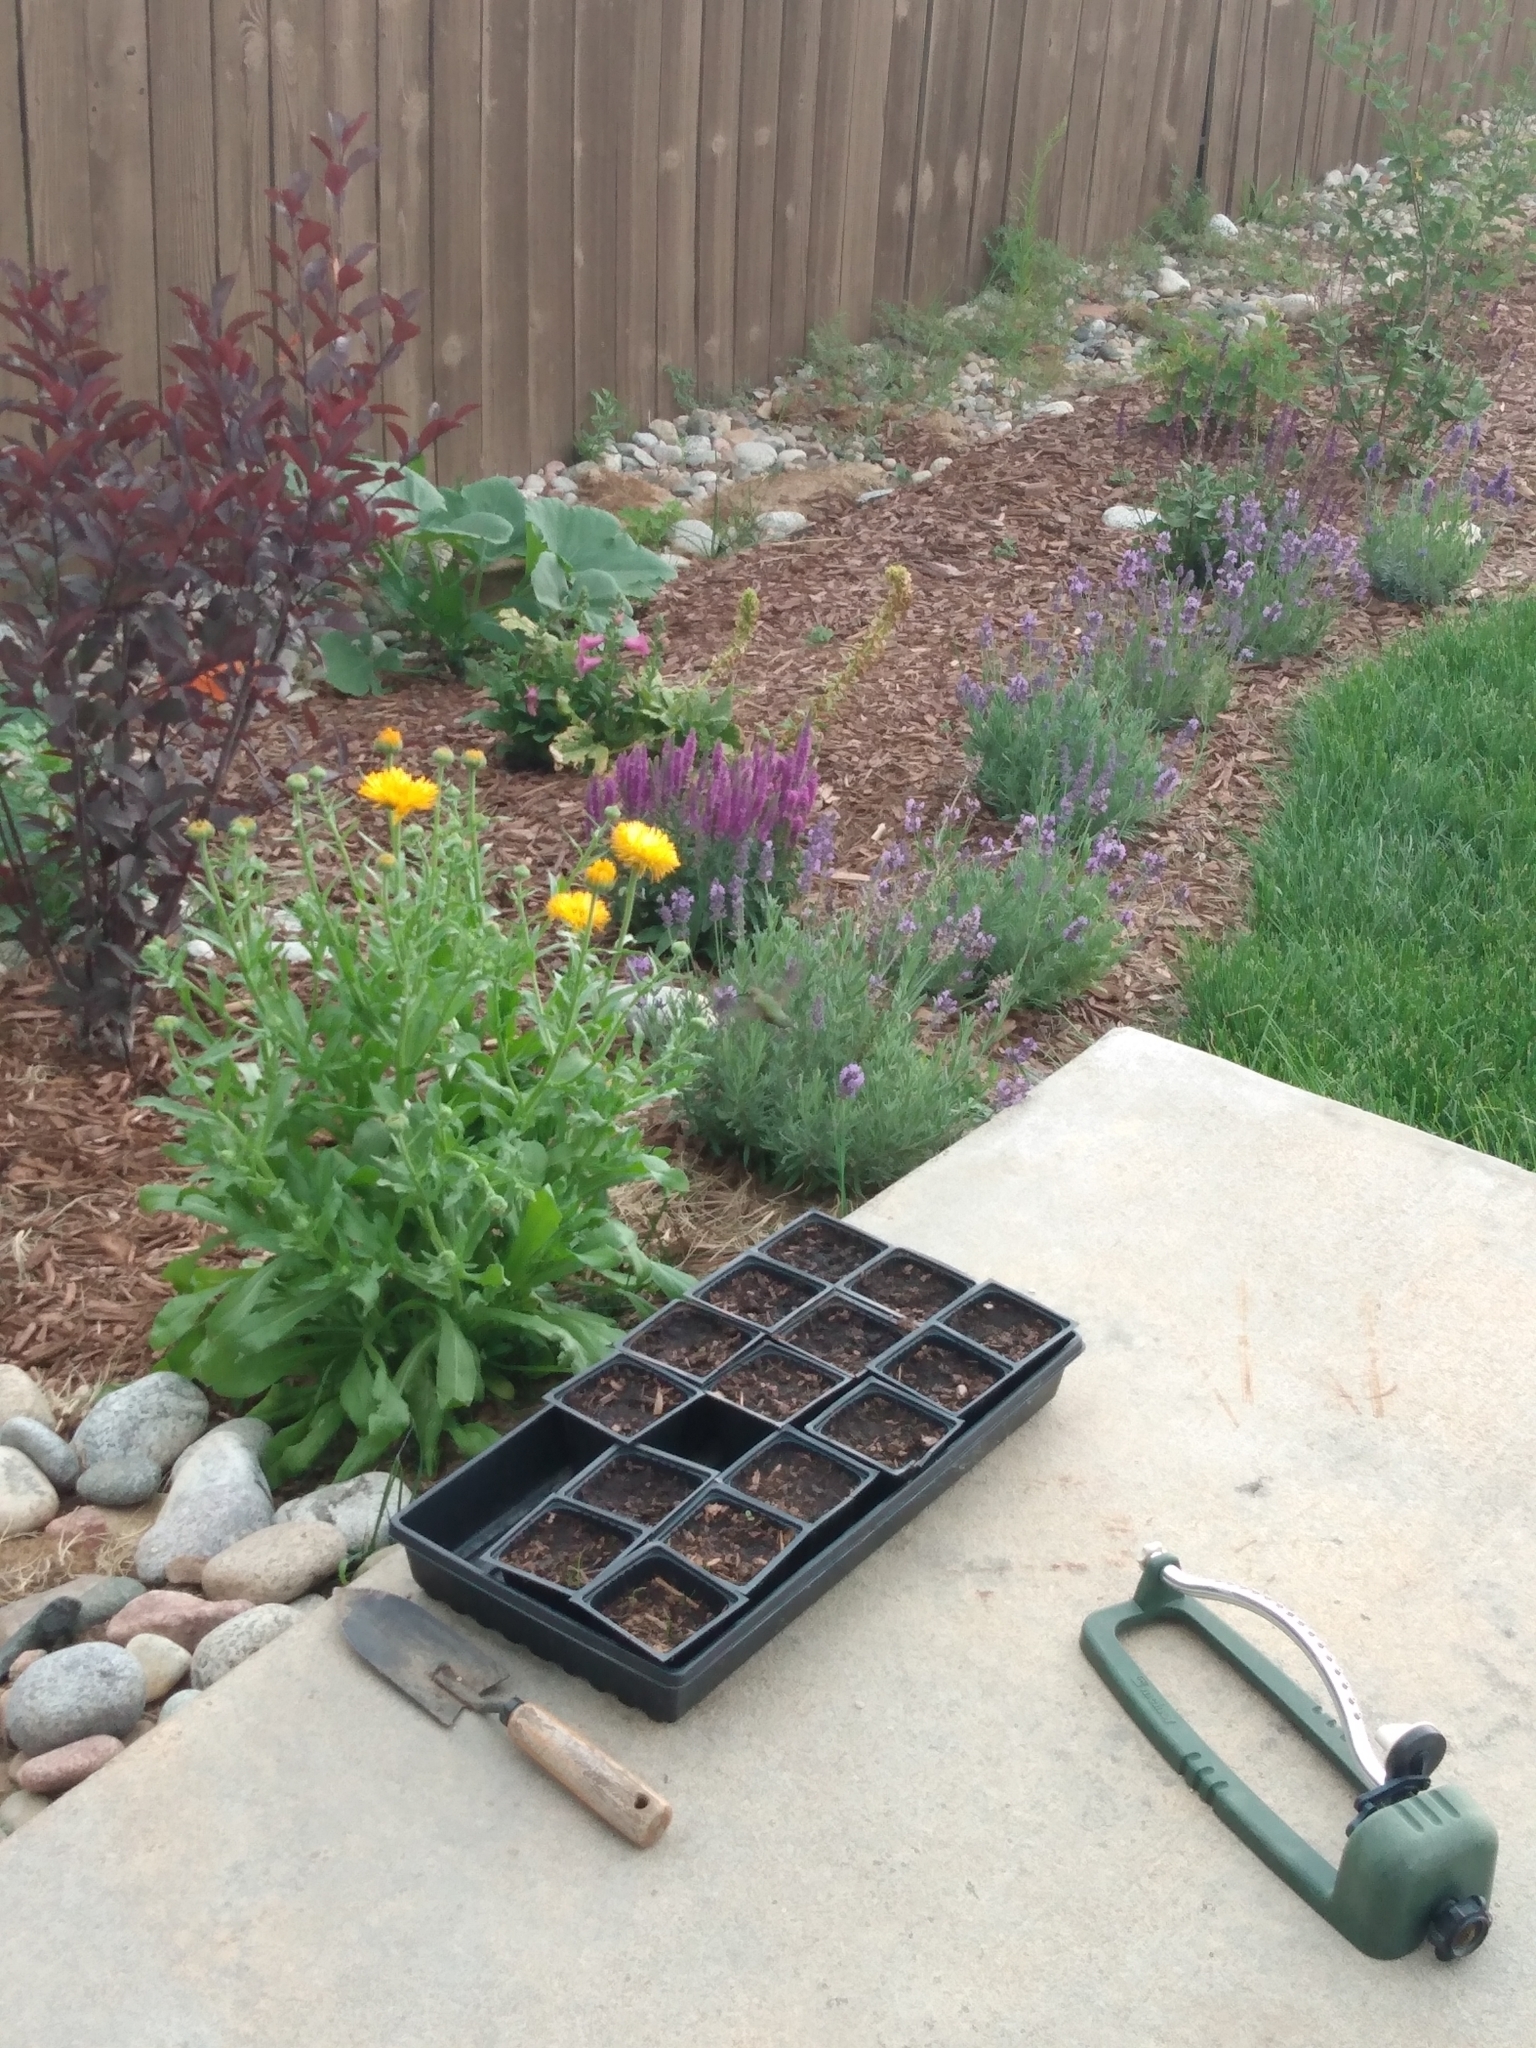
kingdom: Animalia
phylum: Chordata
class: Aves
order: Apodiformes
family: Trochilidae
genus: Selasphorus
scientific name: Selasphorus platycercus
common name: Broad-tailed hummingbird
